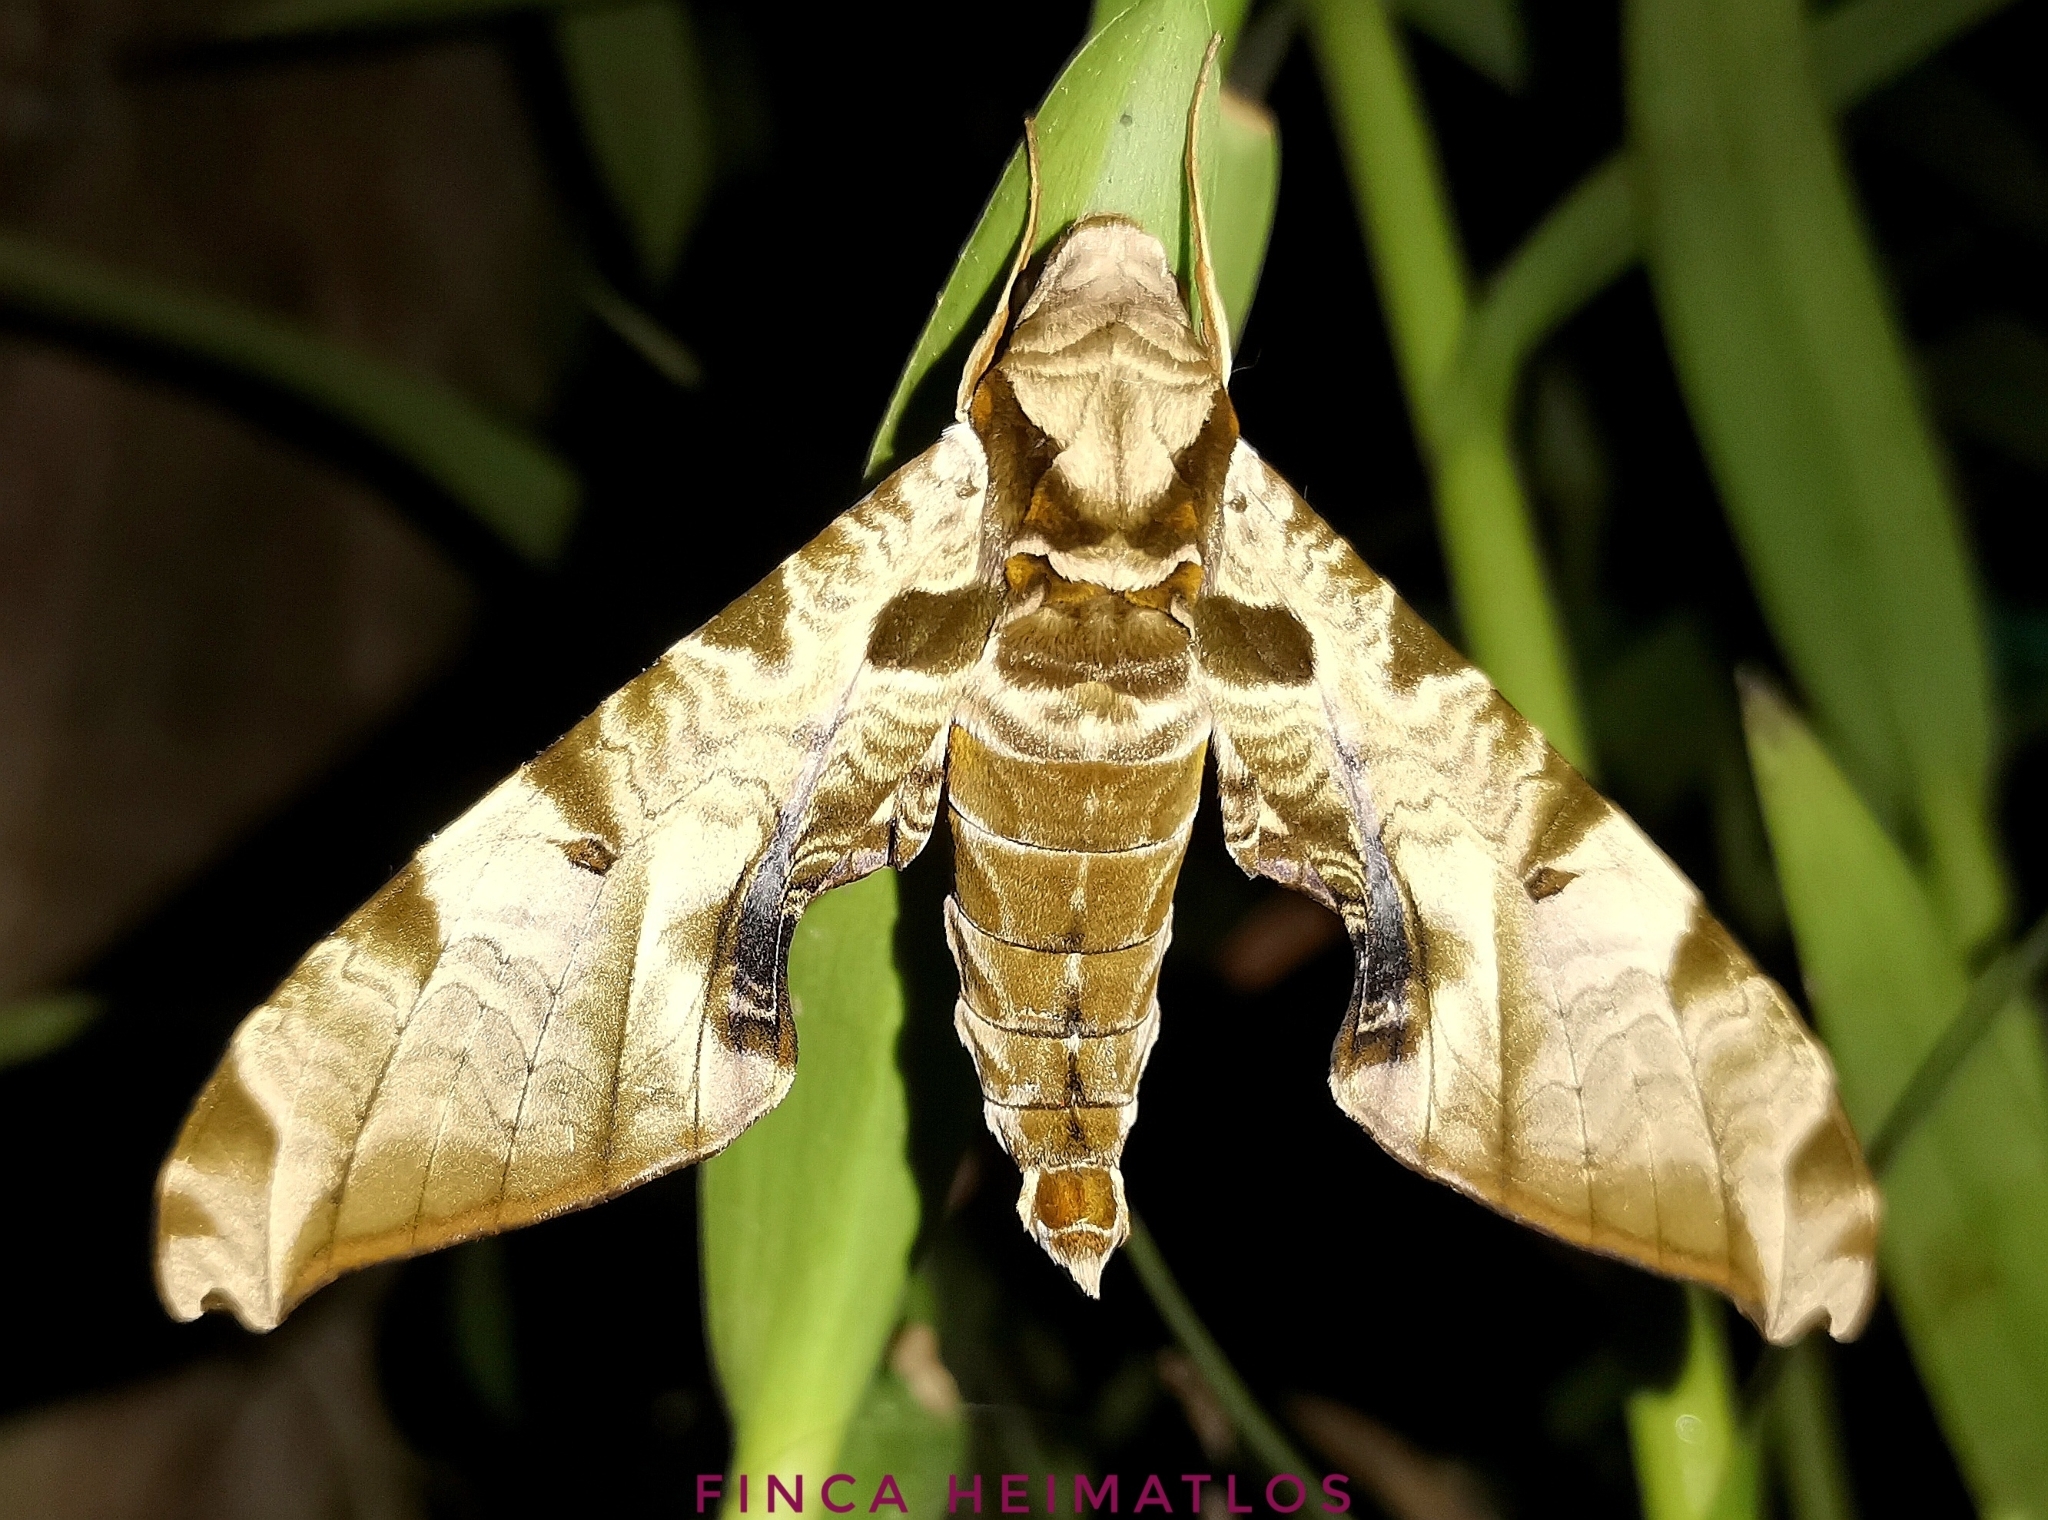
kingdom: Animalia
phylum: Arthropoda
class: Insecta
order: Lepidoptera
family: Sphingidae
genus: Protambulyx
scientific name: Protambulyx eurycles
